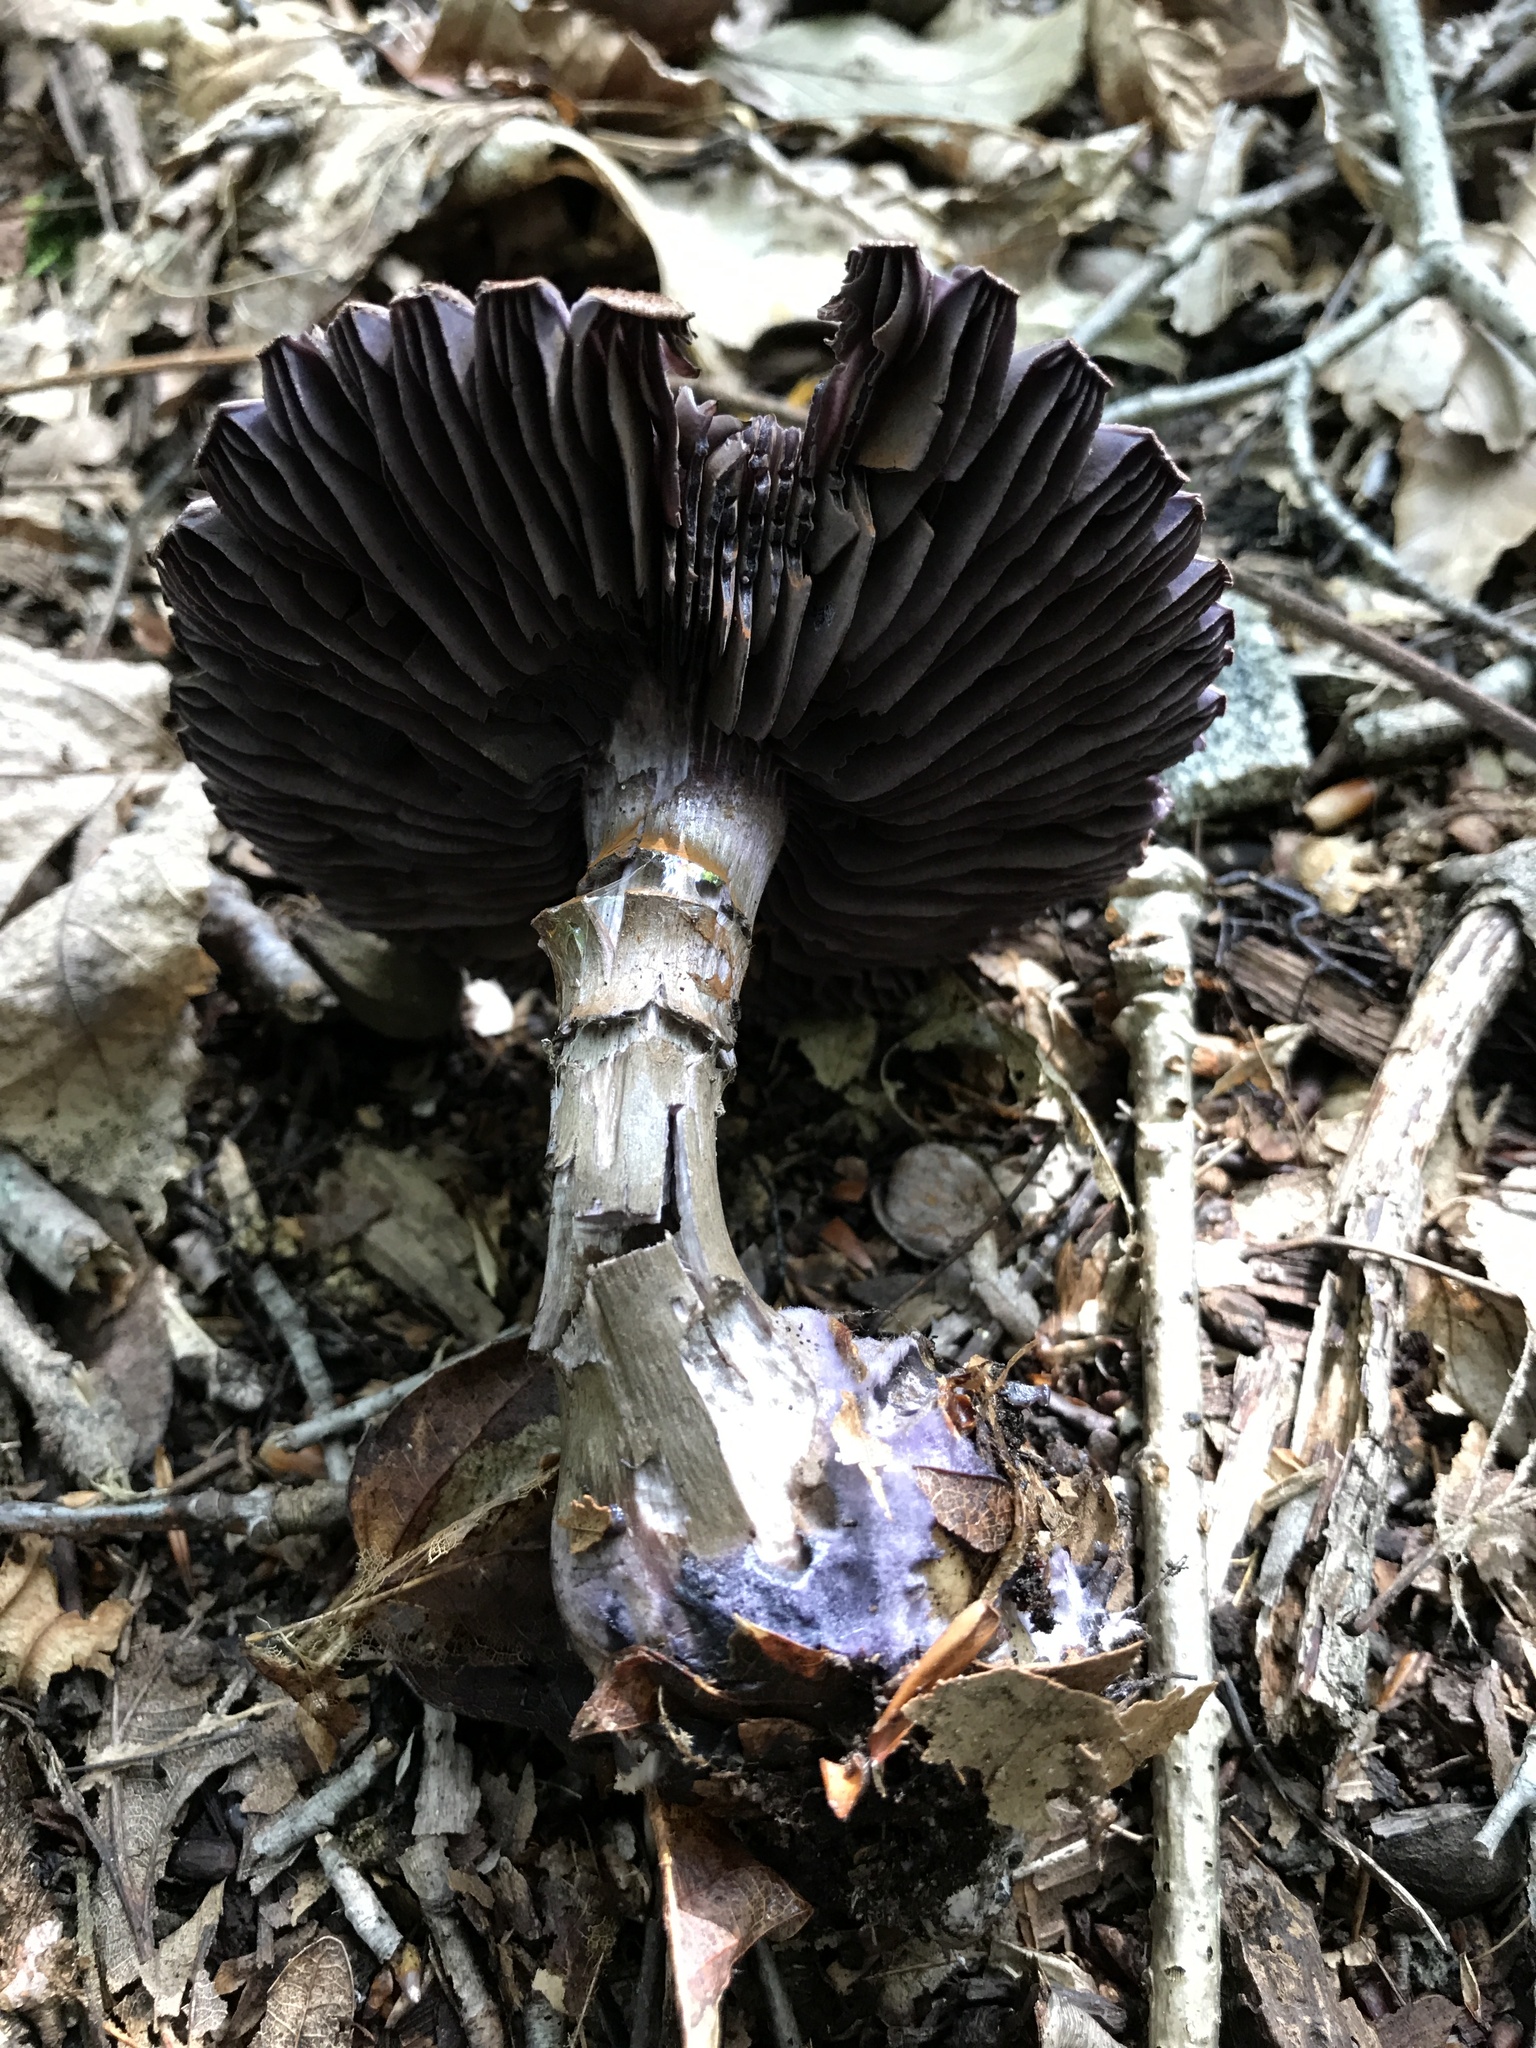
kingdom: Fungi
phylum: Basidiomycota
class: Agaricomycetes
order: Agaricales
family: Cortinariaceae
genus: Cortinarius
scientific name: Cortinarius violaceus
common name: Violet webcap
